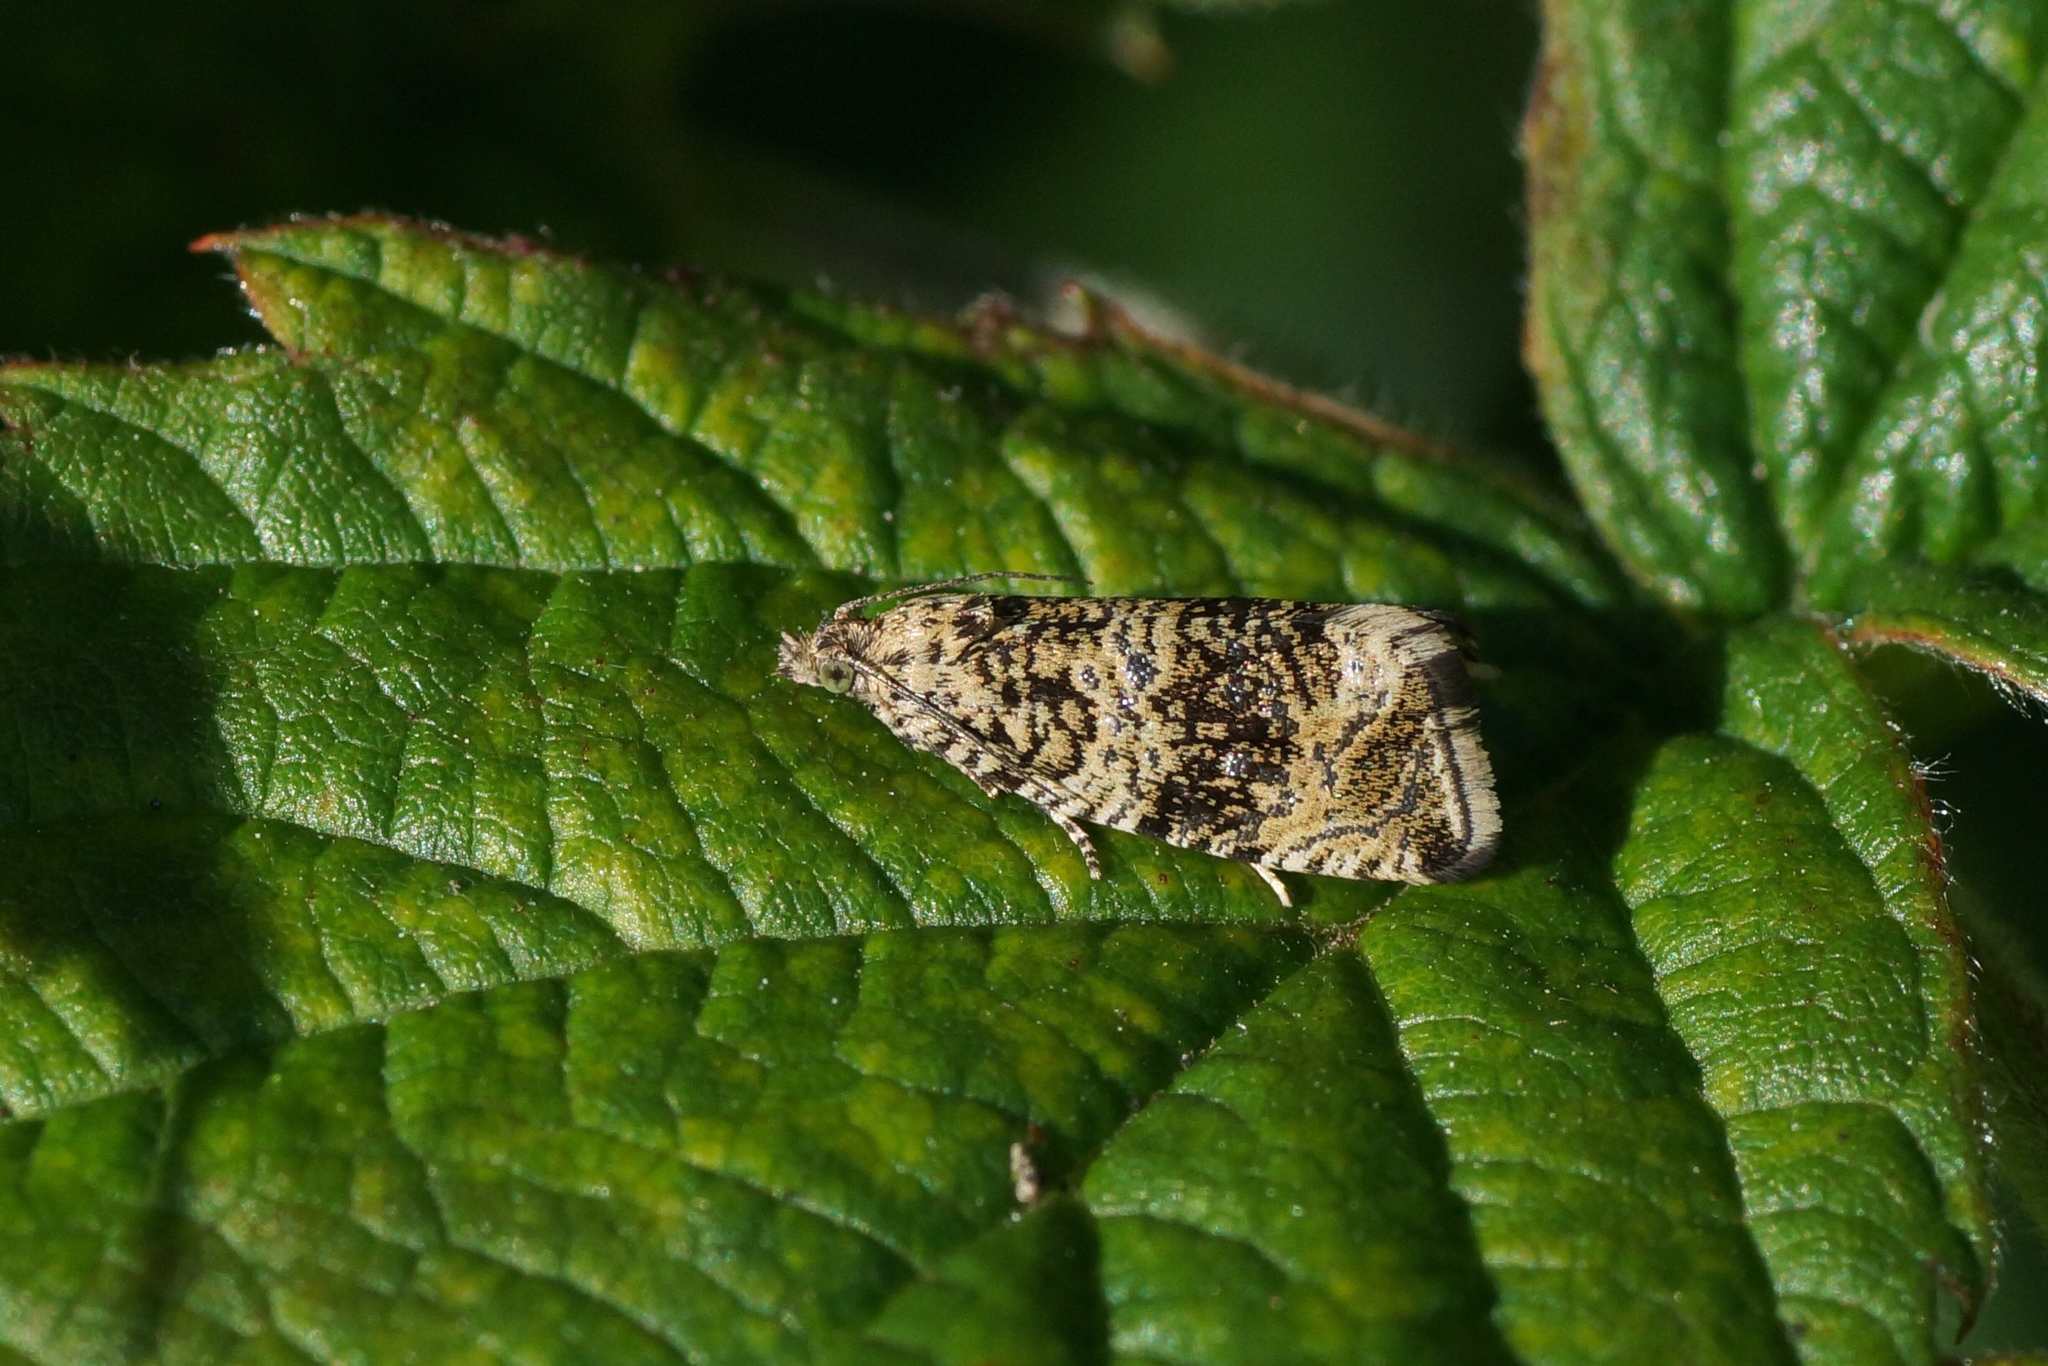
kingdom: Animalia
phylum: Arthropoda
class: Insecta
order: Lepidoptera
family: Tortricidae
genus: Syricoris
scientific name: Syricoris lacunana
